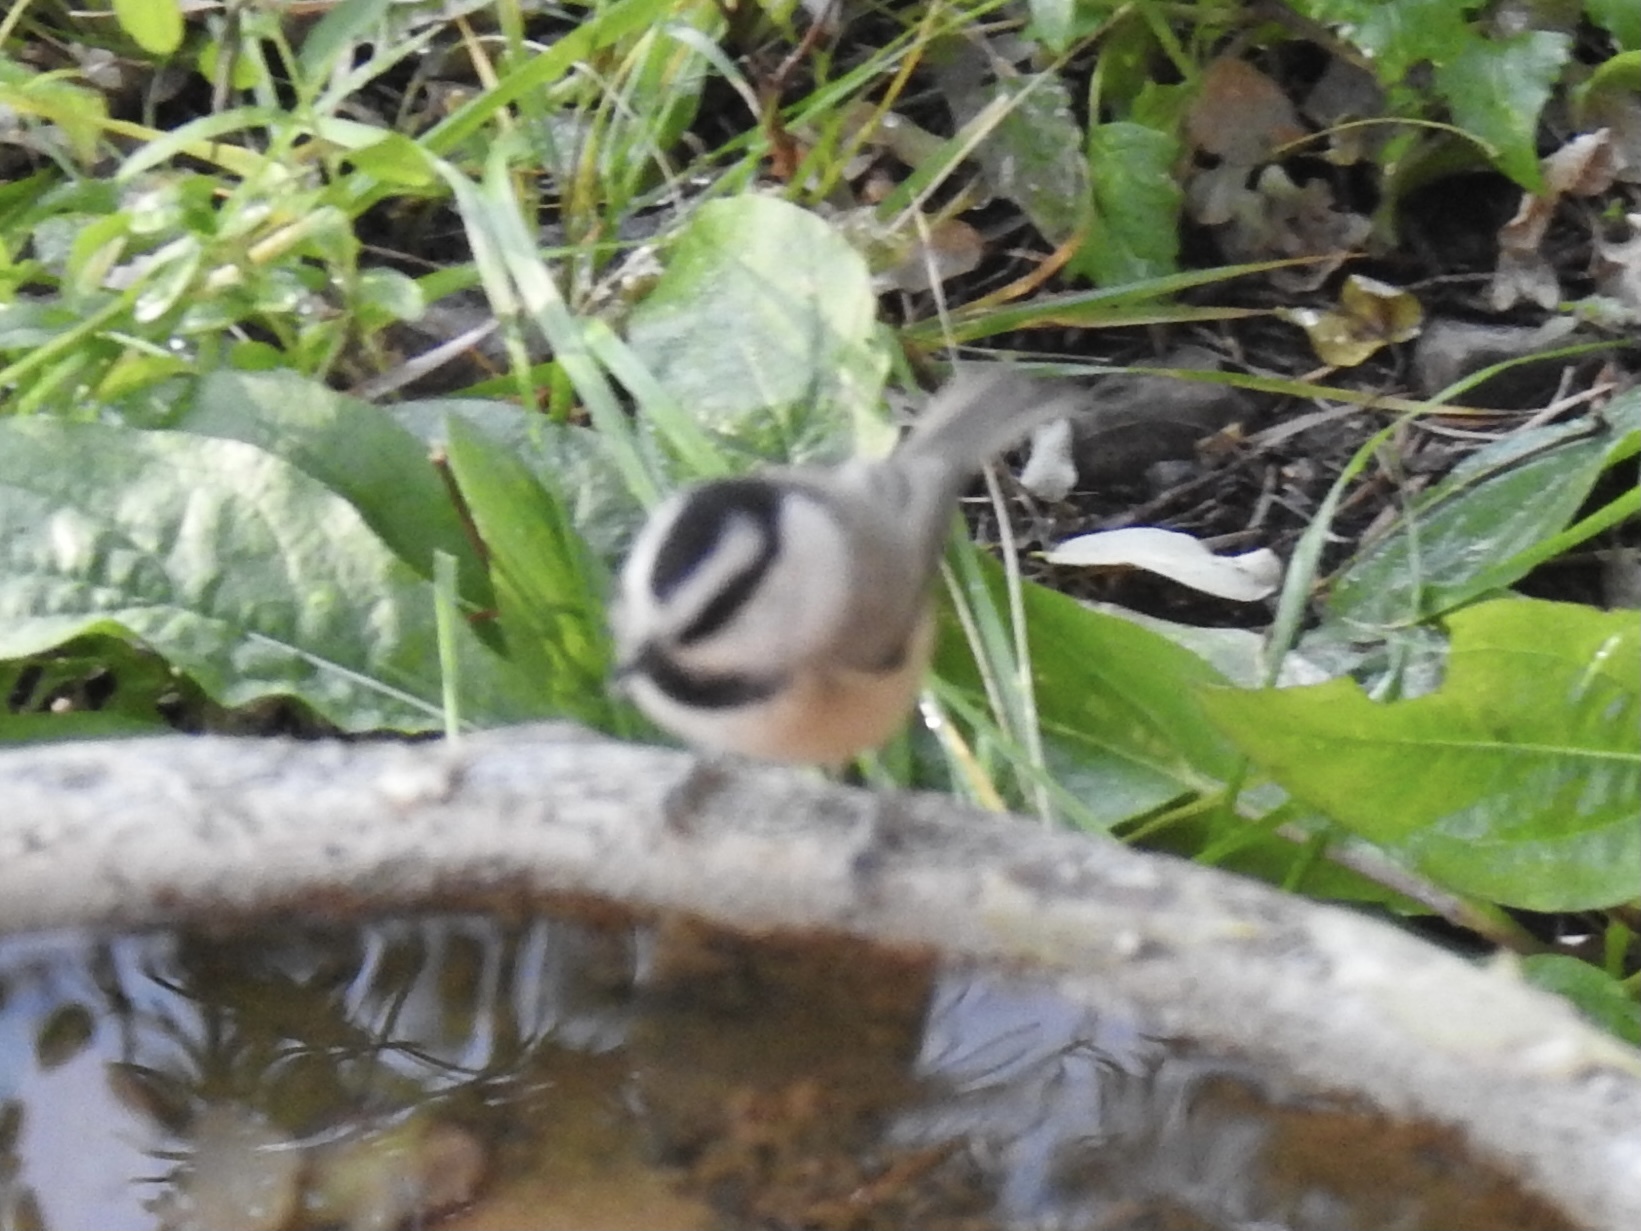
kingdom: Animalia
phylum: Chordata
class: Aves
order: Passeriformes
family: Paridae
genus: Poecile
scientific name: Poecile gambeli
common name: Mountain chickadee
